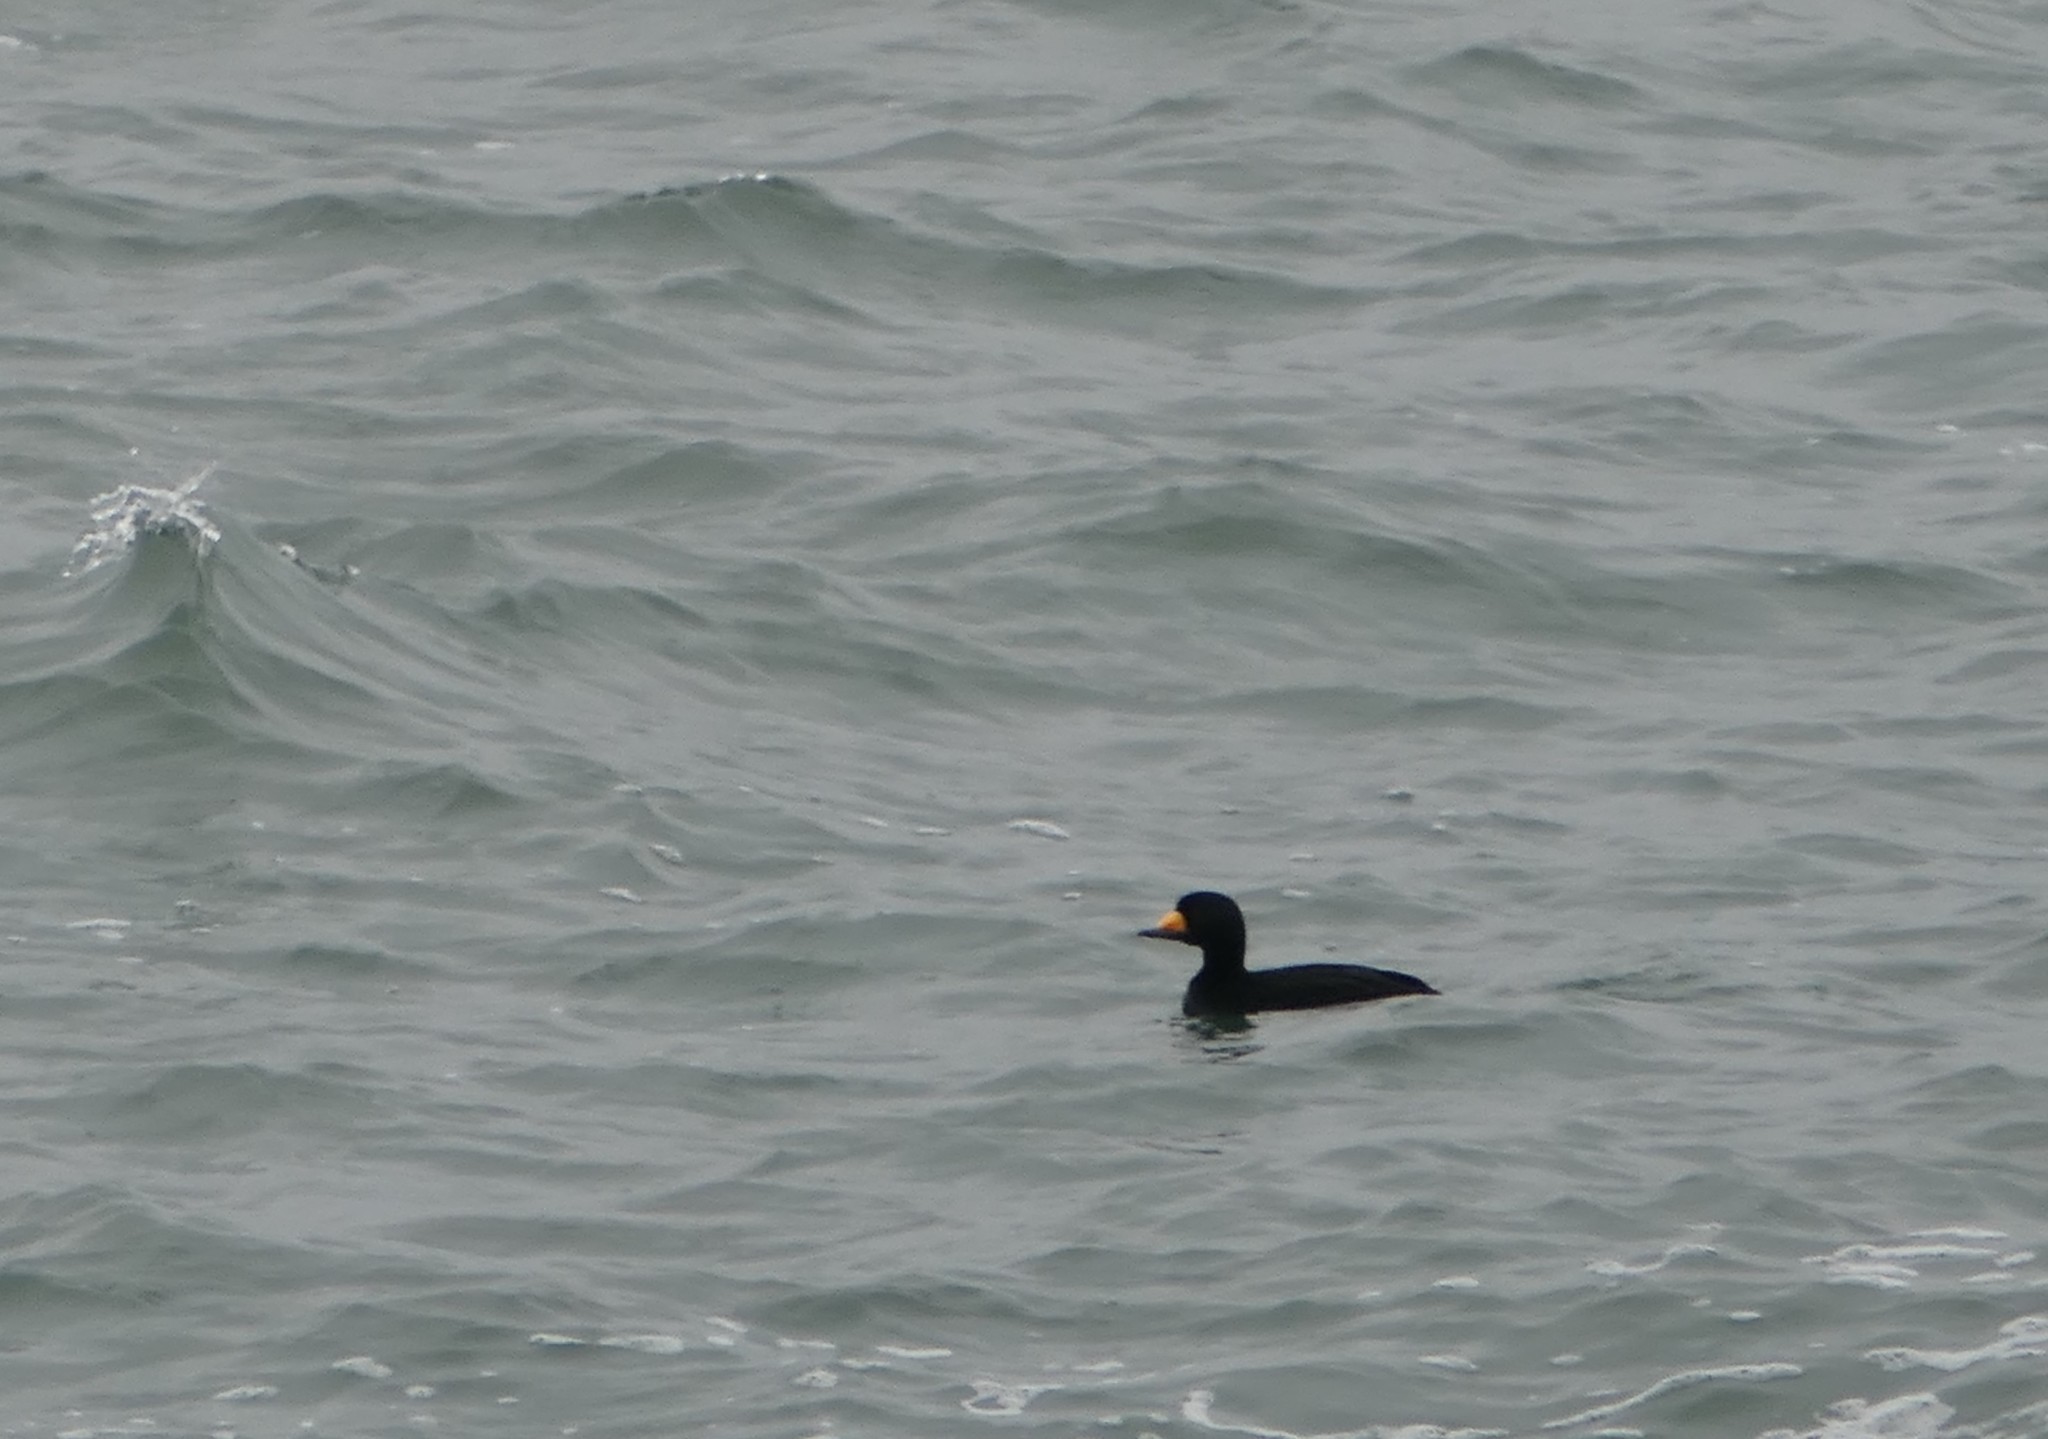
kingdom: Animalia
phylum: Chordata
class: Aves
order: Anseriformes
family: Anatidae
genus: Melanitta
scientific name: Melanitta americana
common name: Black scoter
